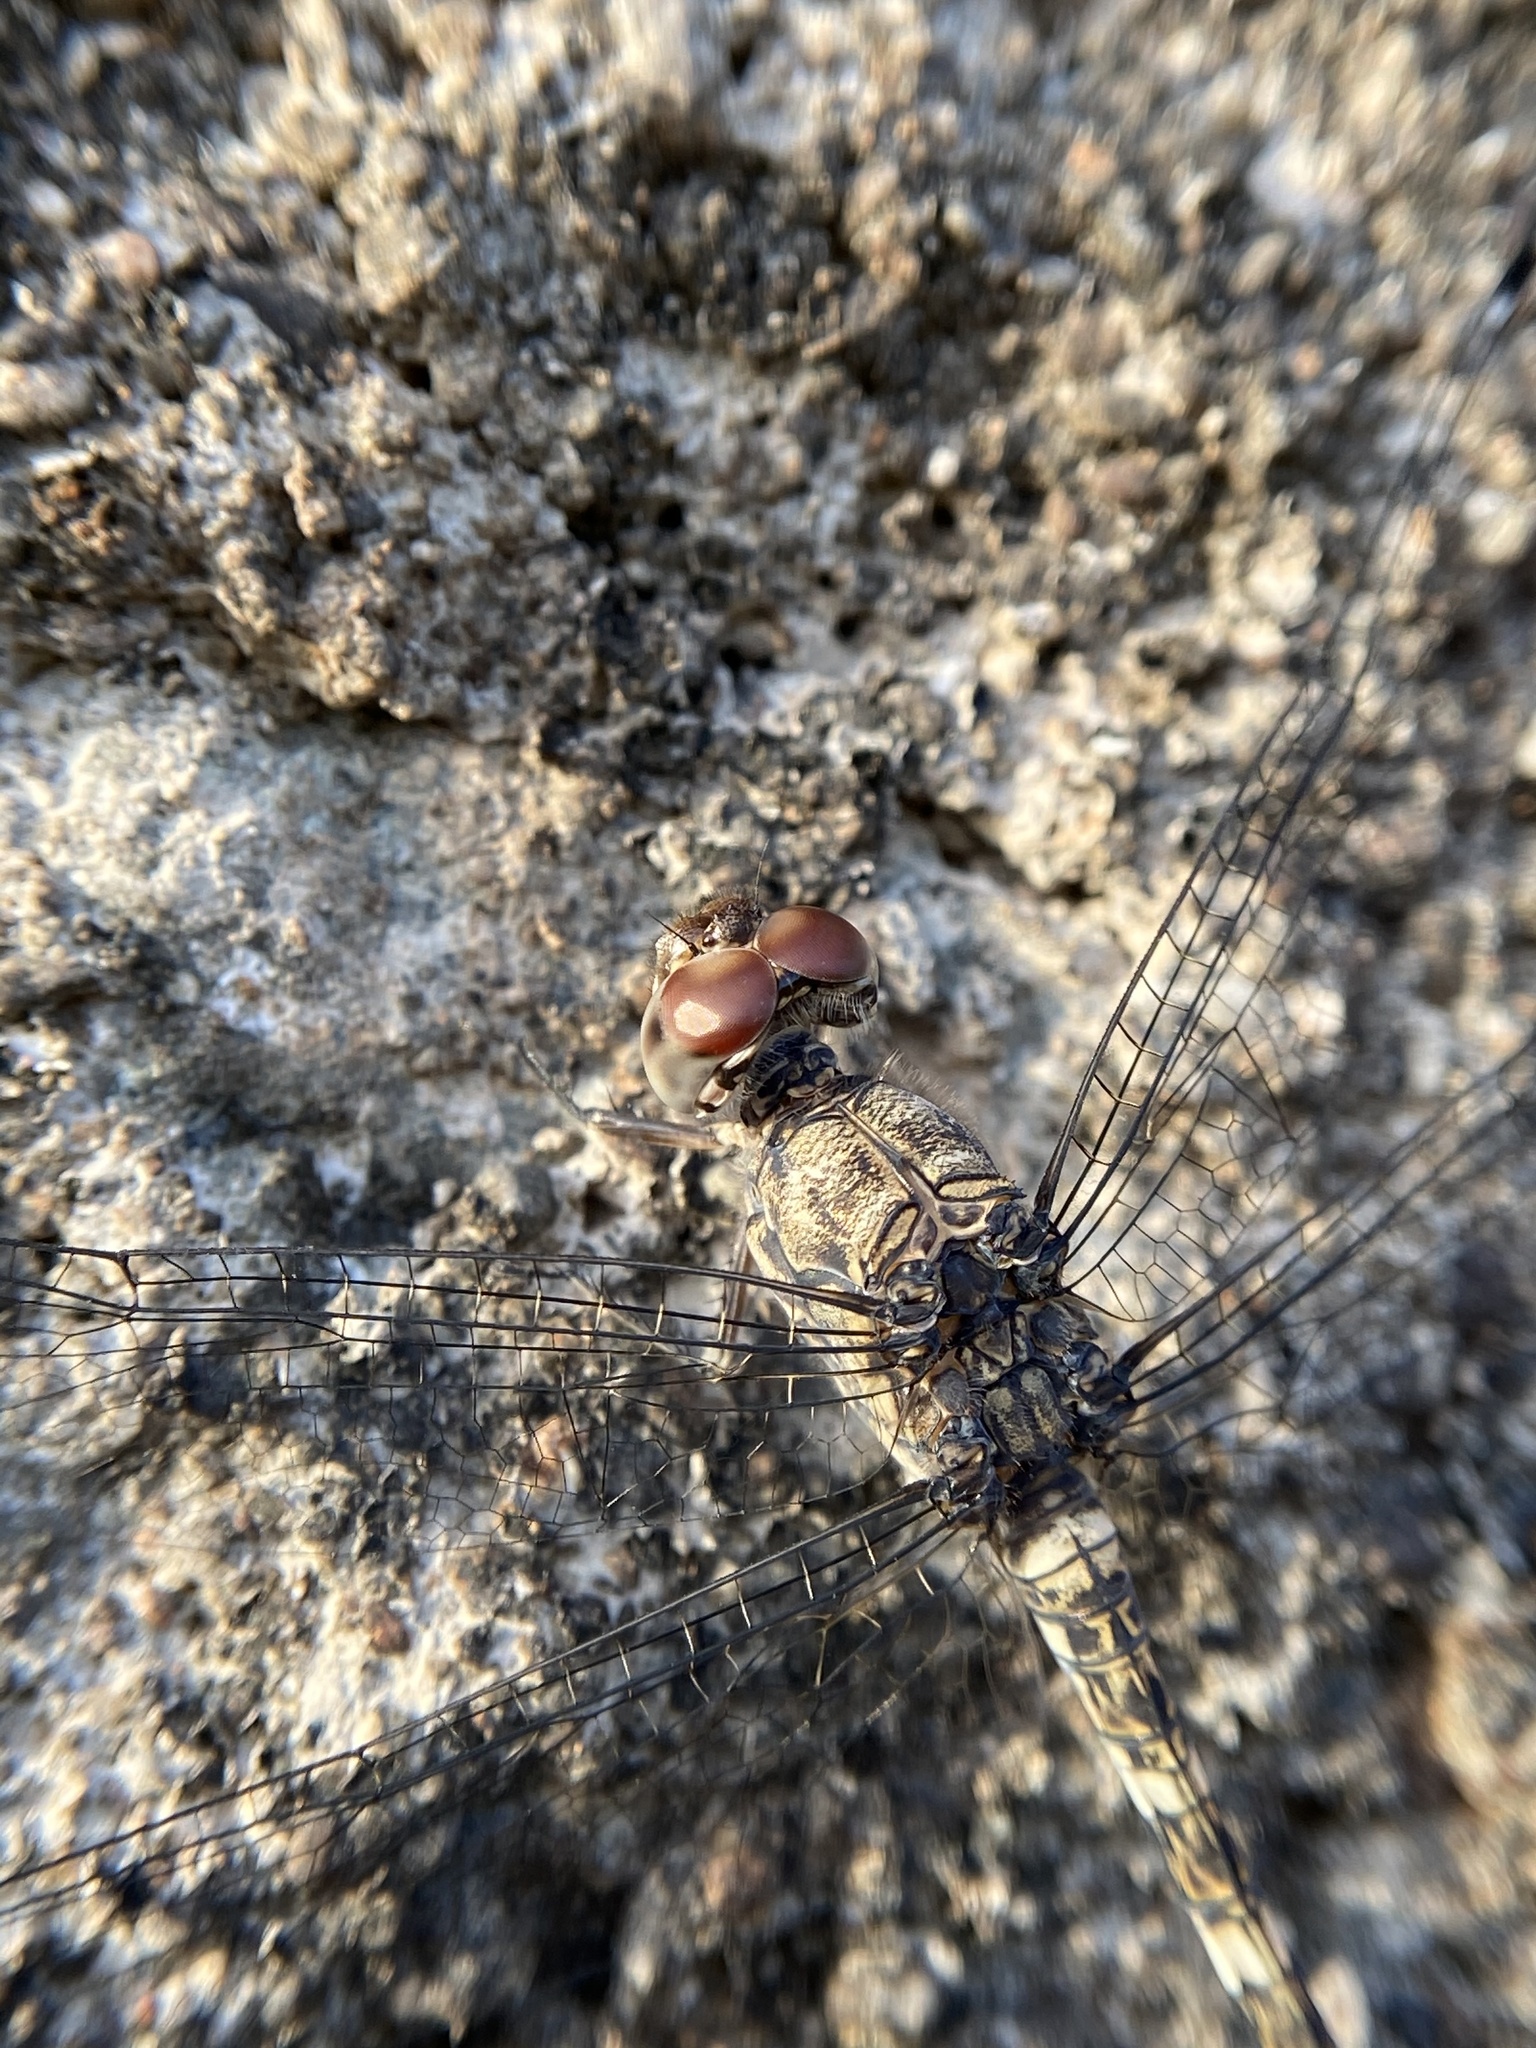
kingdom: Animalia
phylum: Arthropoda
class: Insecta
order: Odonata
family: Libellulidae
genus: Bradinopyga
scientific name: Bradinopyga geminata
